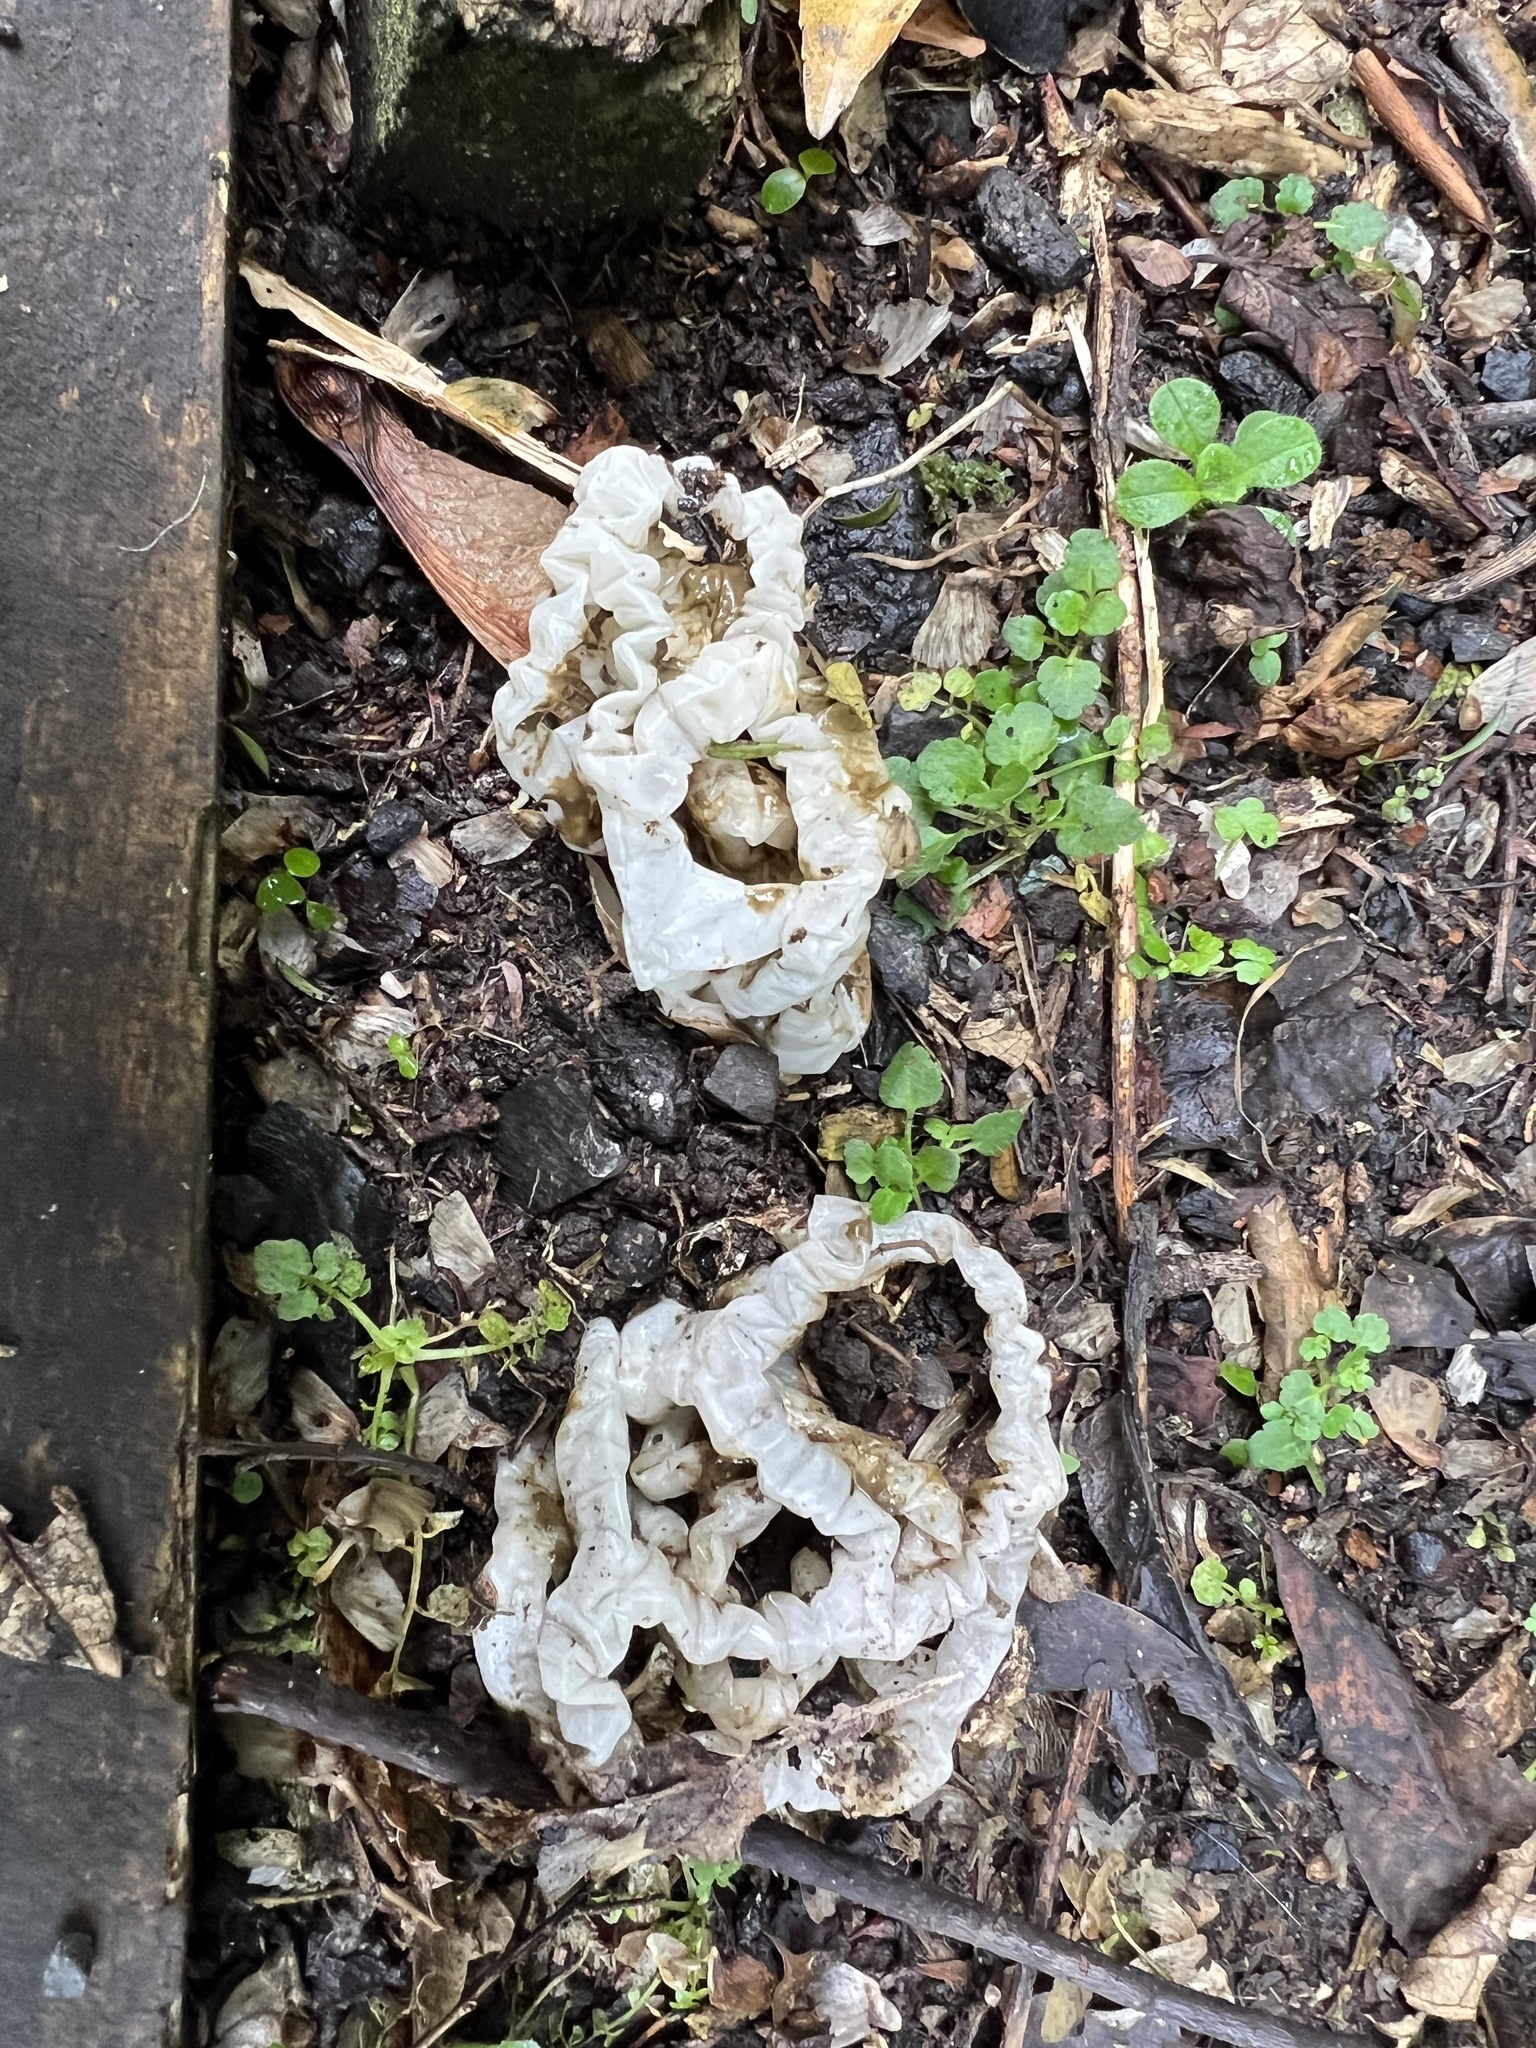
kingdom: Fungi
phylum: Basidiomycota
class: Agaricomycetes
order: Phallales
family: Phallaceae
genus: Ileodictyon
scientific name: Ileodictyon cibarium
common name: Basket fungus
